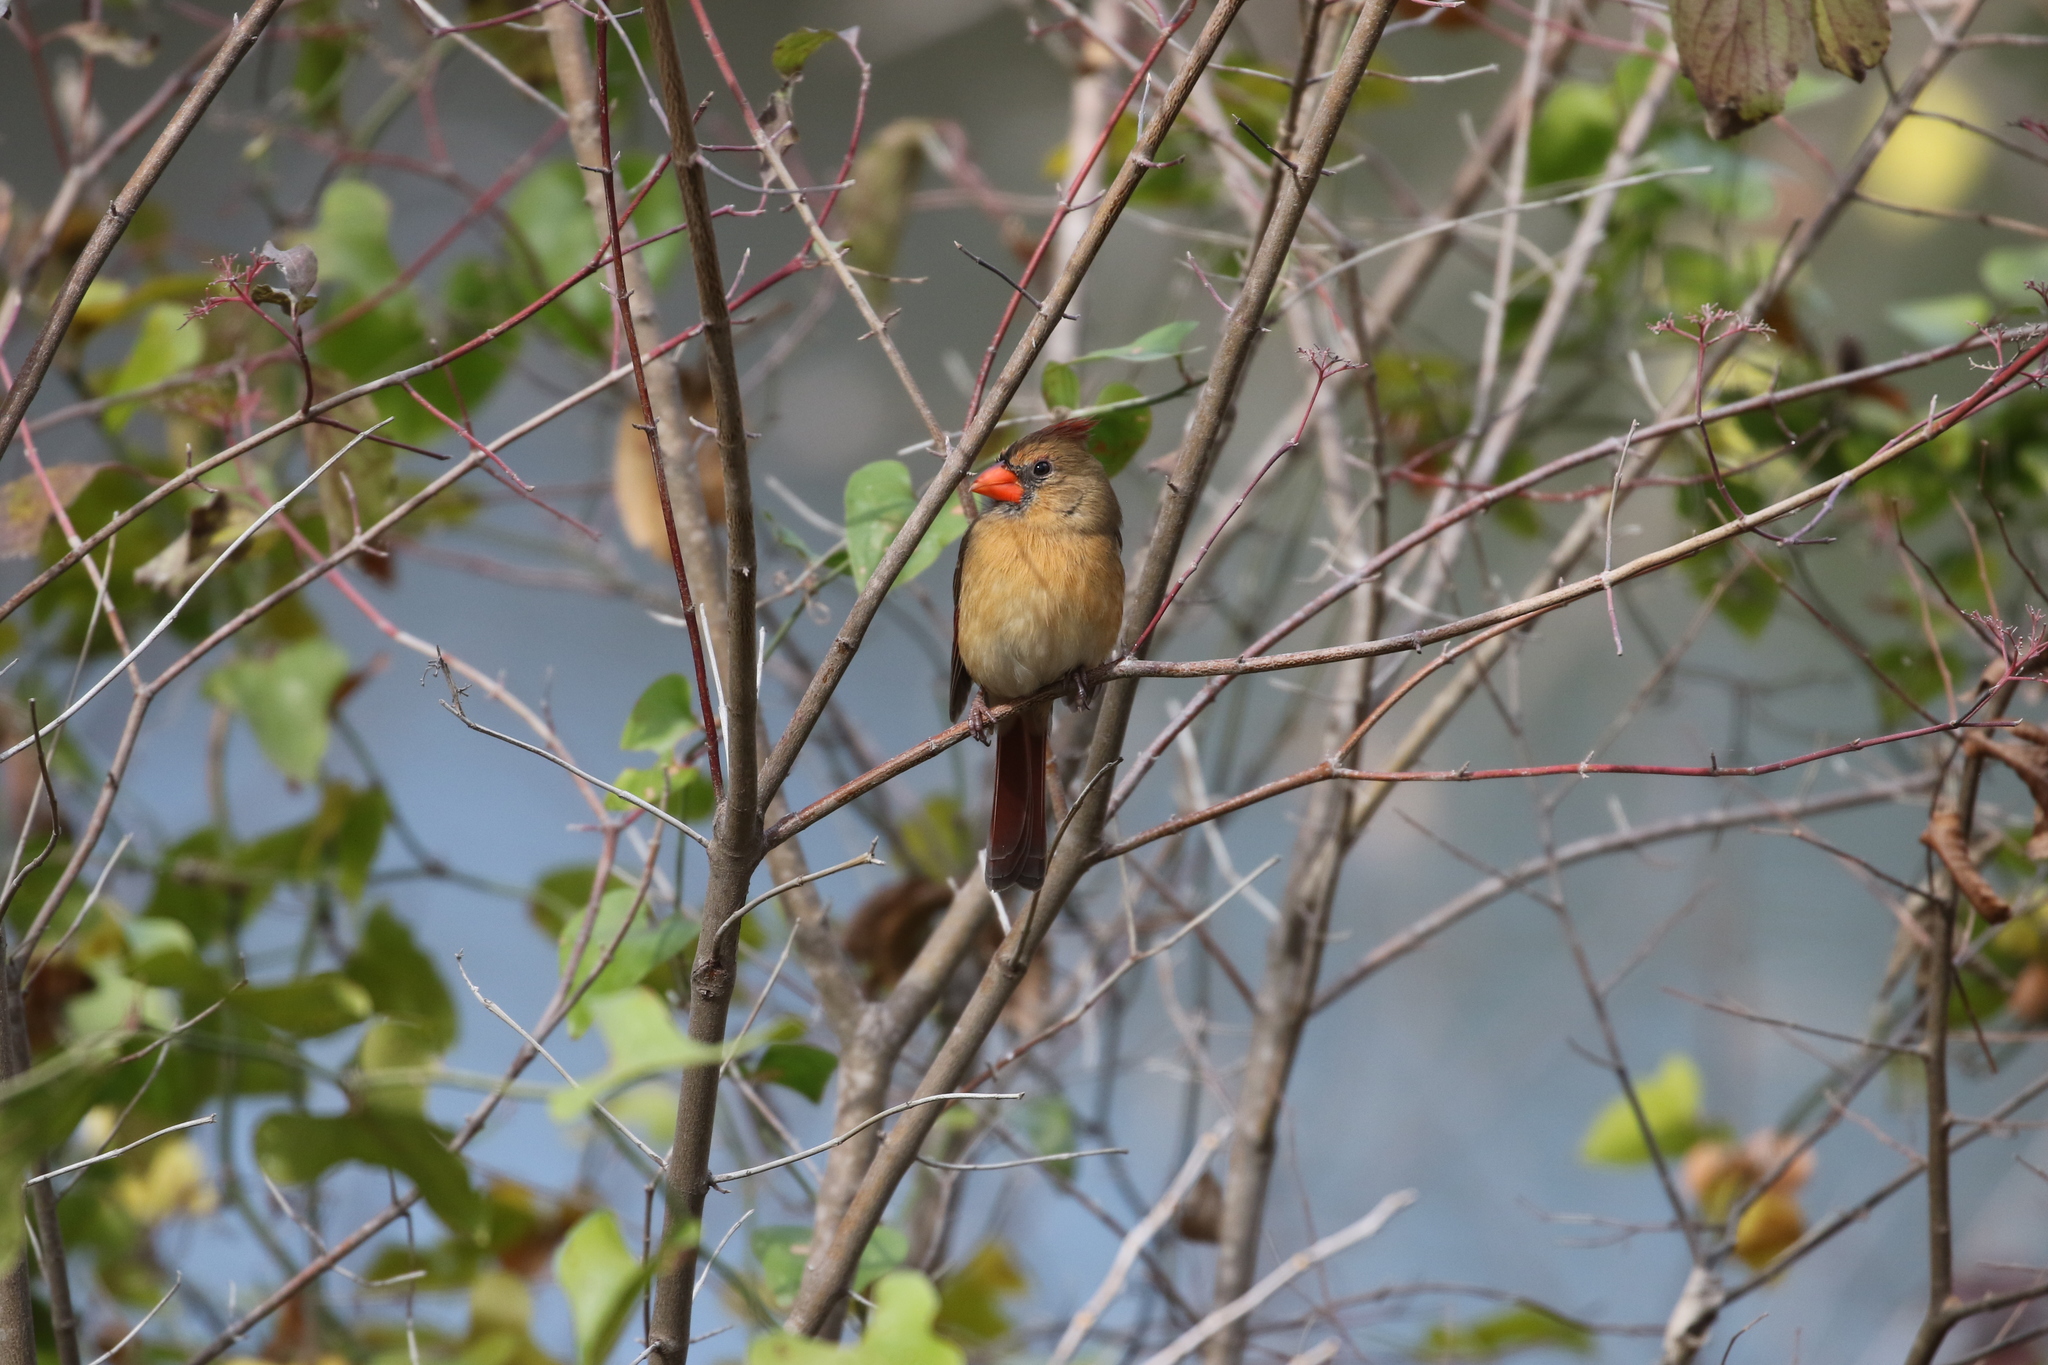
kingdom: Animalia
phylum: Chordata
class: Aves
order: Passeriformes
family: Cardinalidae
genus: Cardinalis
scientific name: Cardinalis cardinalis
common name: Northern cardinal
